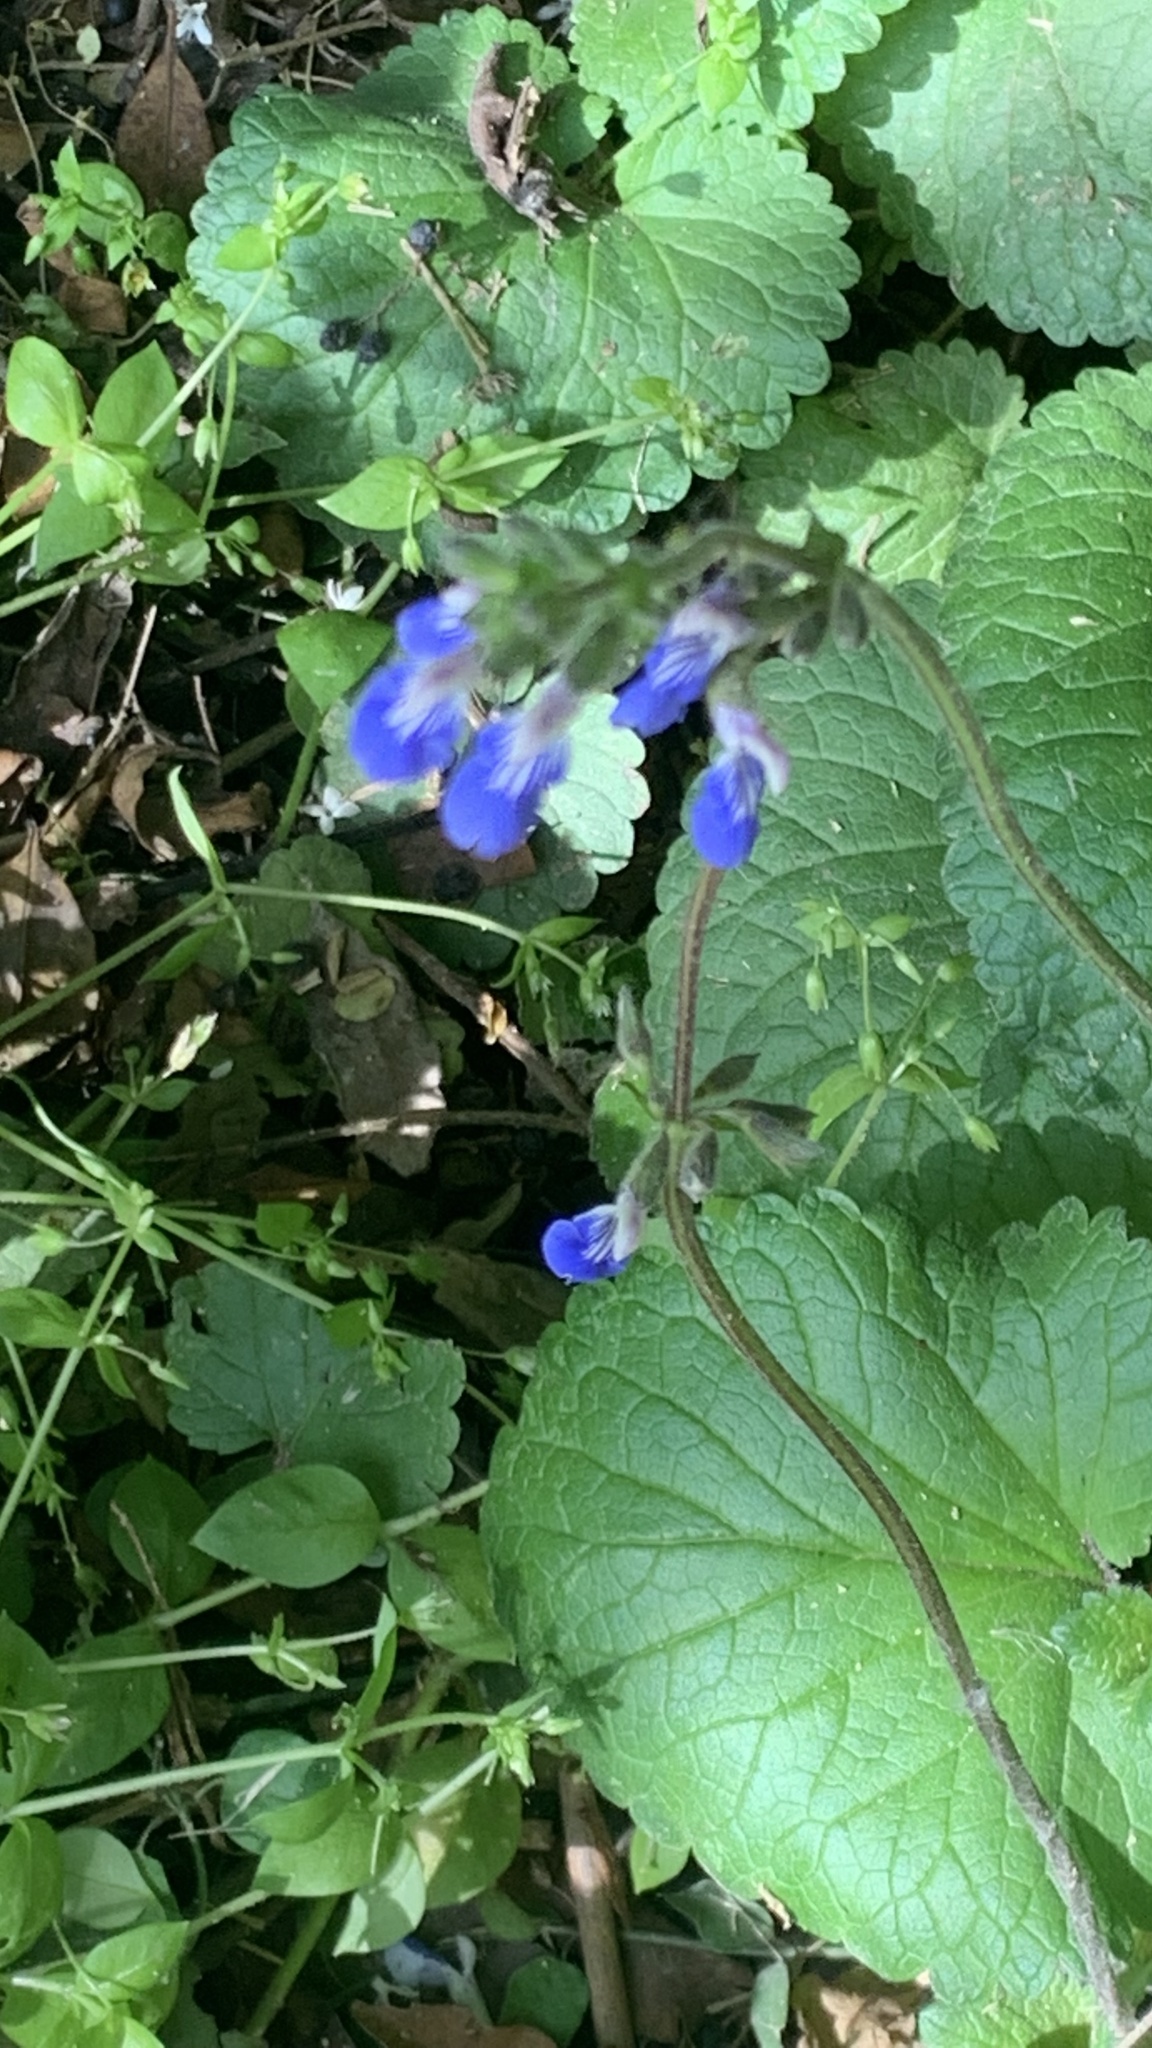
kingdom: Plantae
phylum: Tracheophyta
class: Magnoliopsida
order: Lamiales
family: Lamiaceae
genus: Salvia
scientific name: Salvia procurrens
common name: Blue creeper
